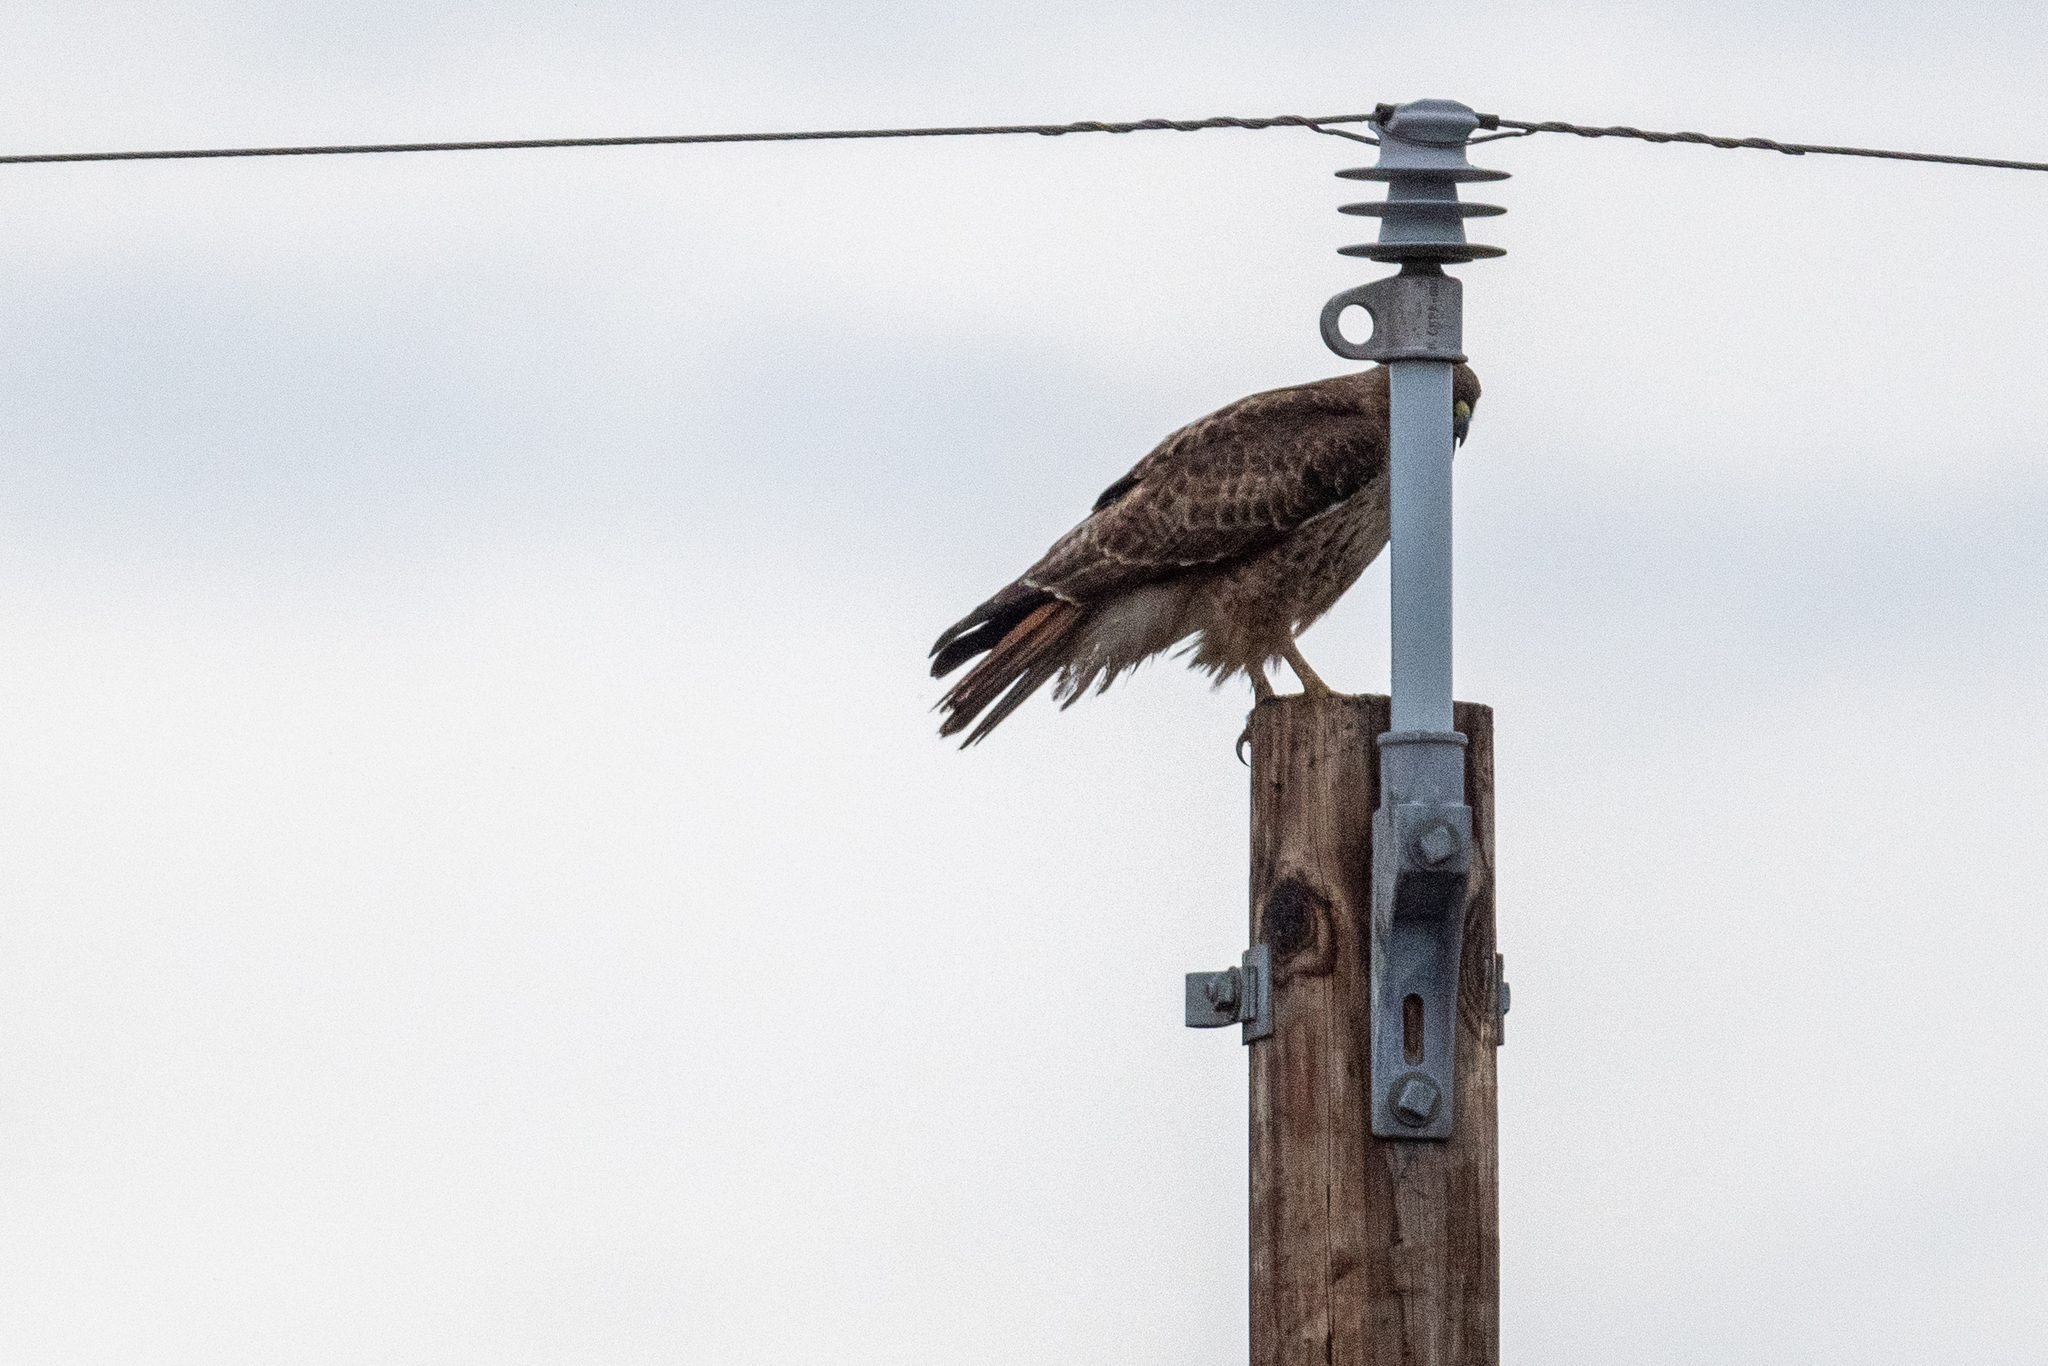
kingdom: Animalia
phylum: Chordata
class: Aves
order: Accipitriformes
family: Accipitridae
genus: Buteo
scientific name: Buteo jamaicensis
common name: Red-tailed hawk
